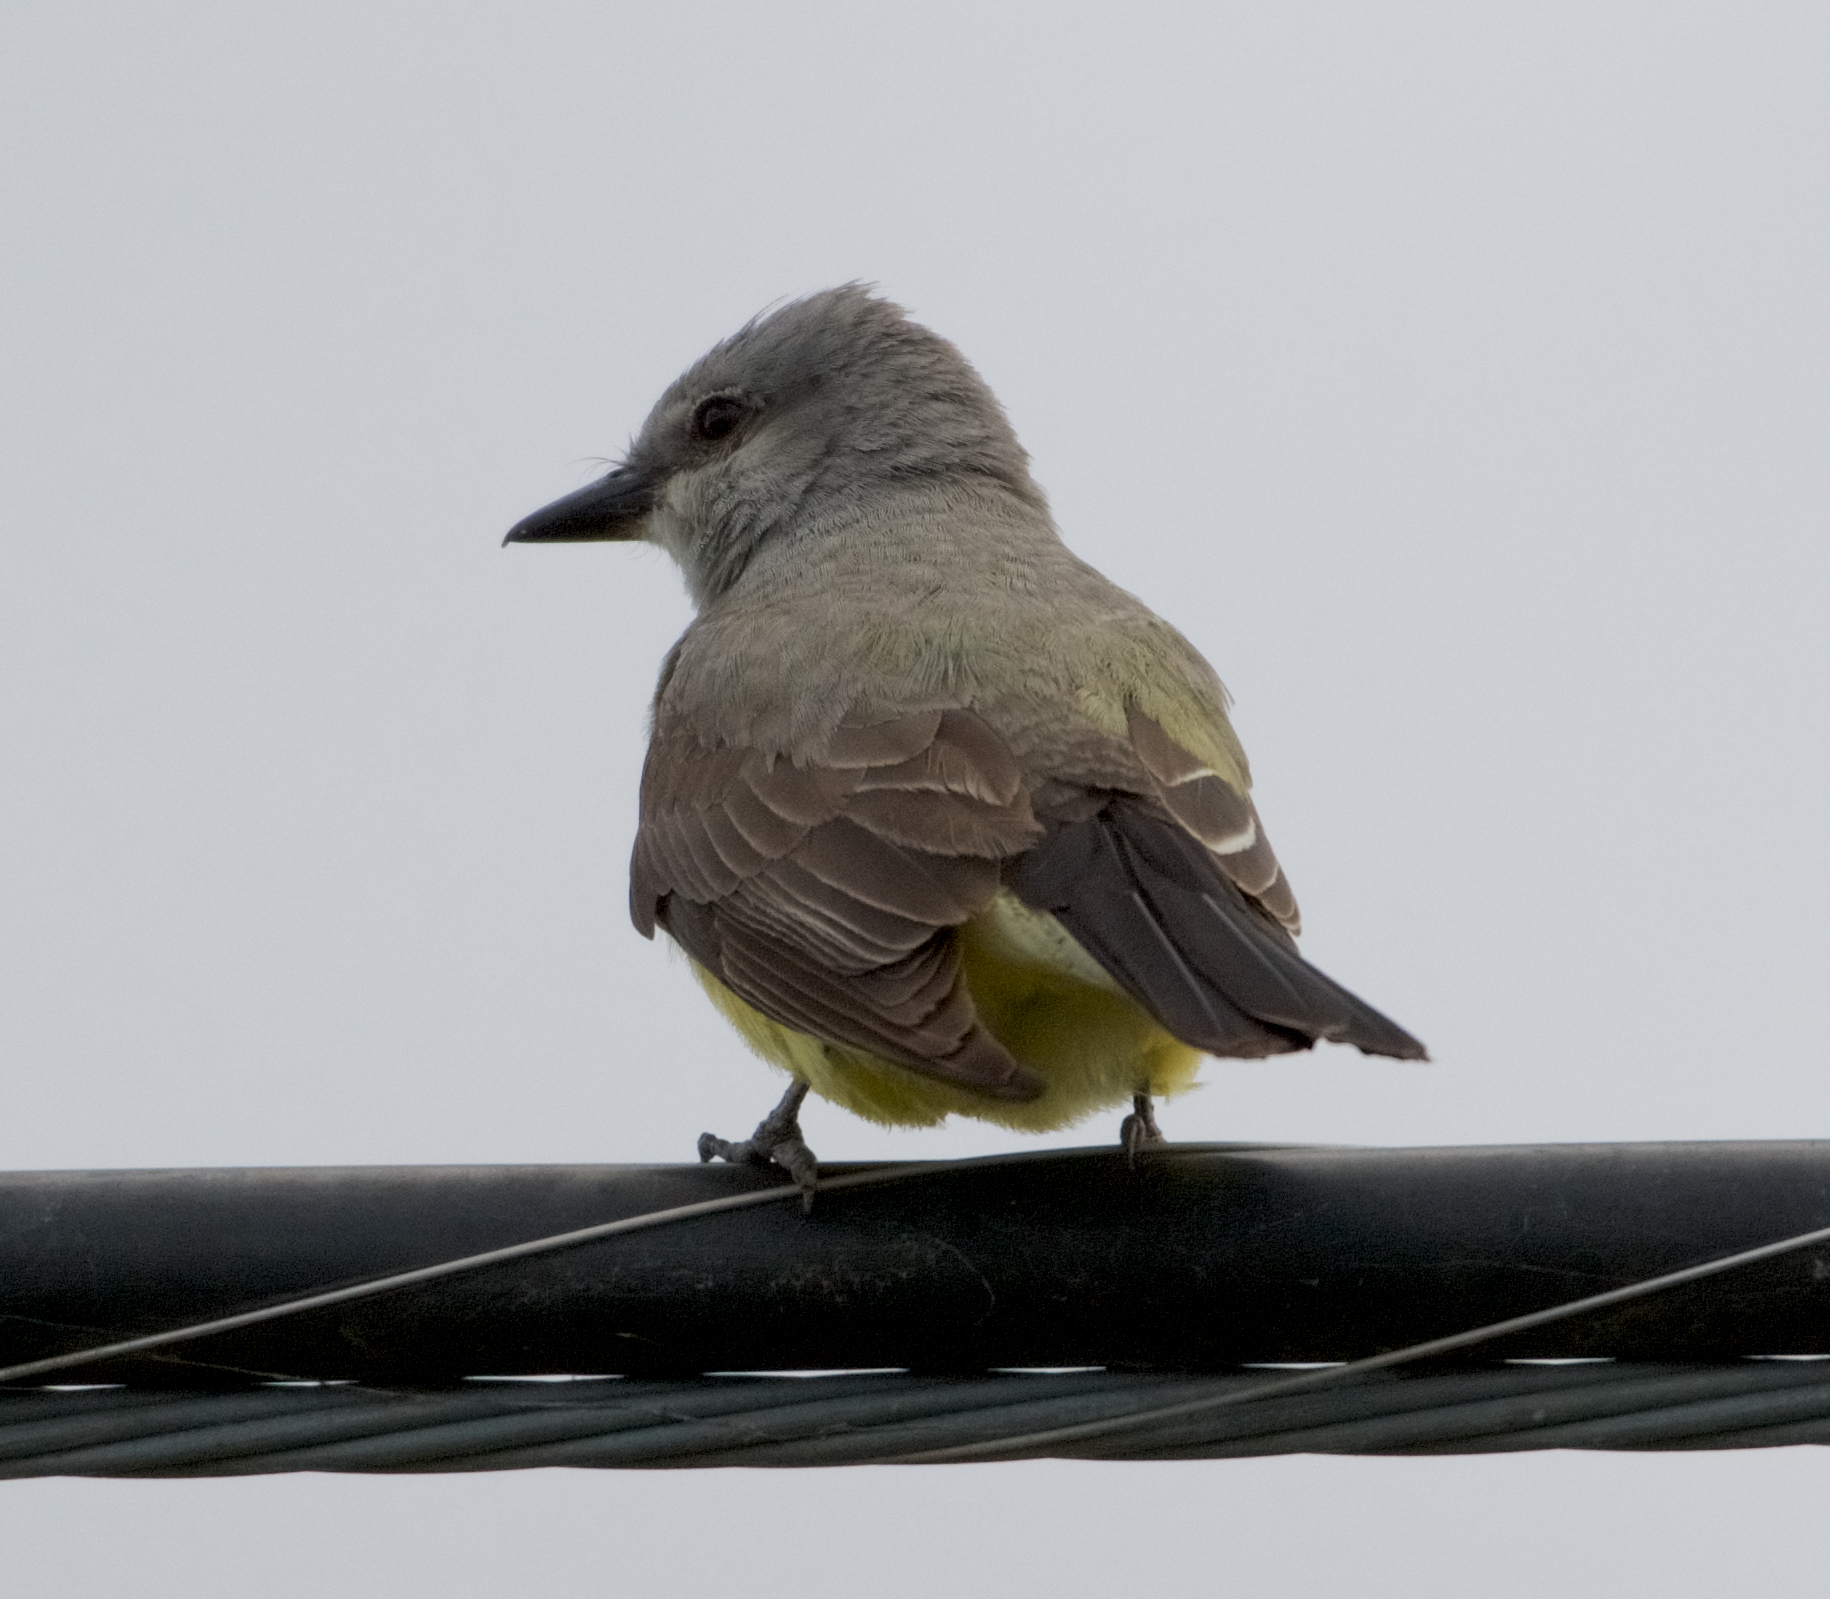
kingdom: Animalia
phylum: Chordata
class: Aves
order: Passeriformes
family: Tyrannidae
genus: Tyrannus
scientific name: Tyrannus verticalis
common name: Western kingbird
